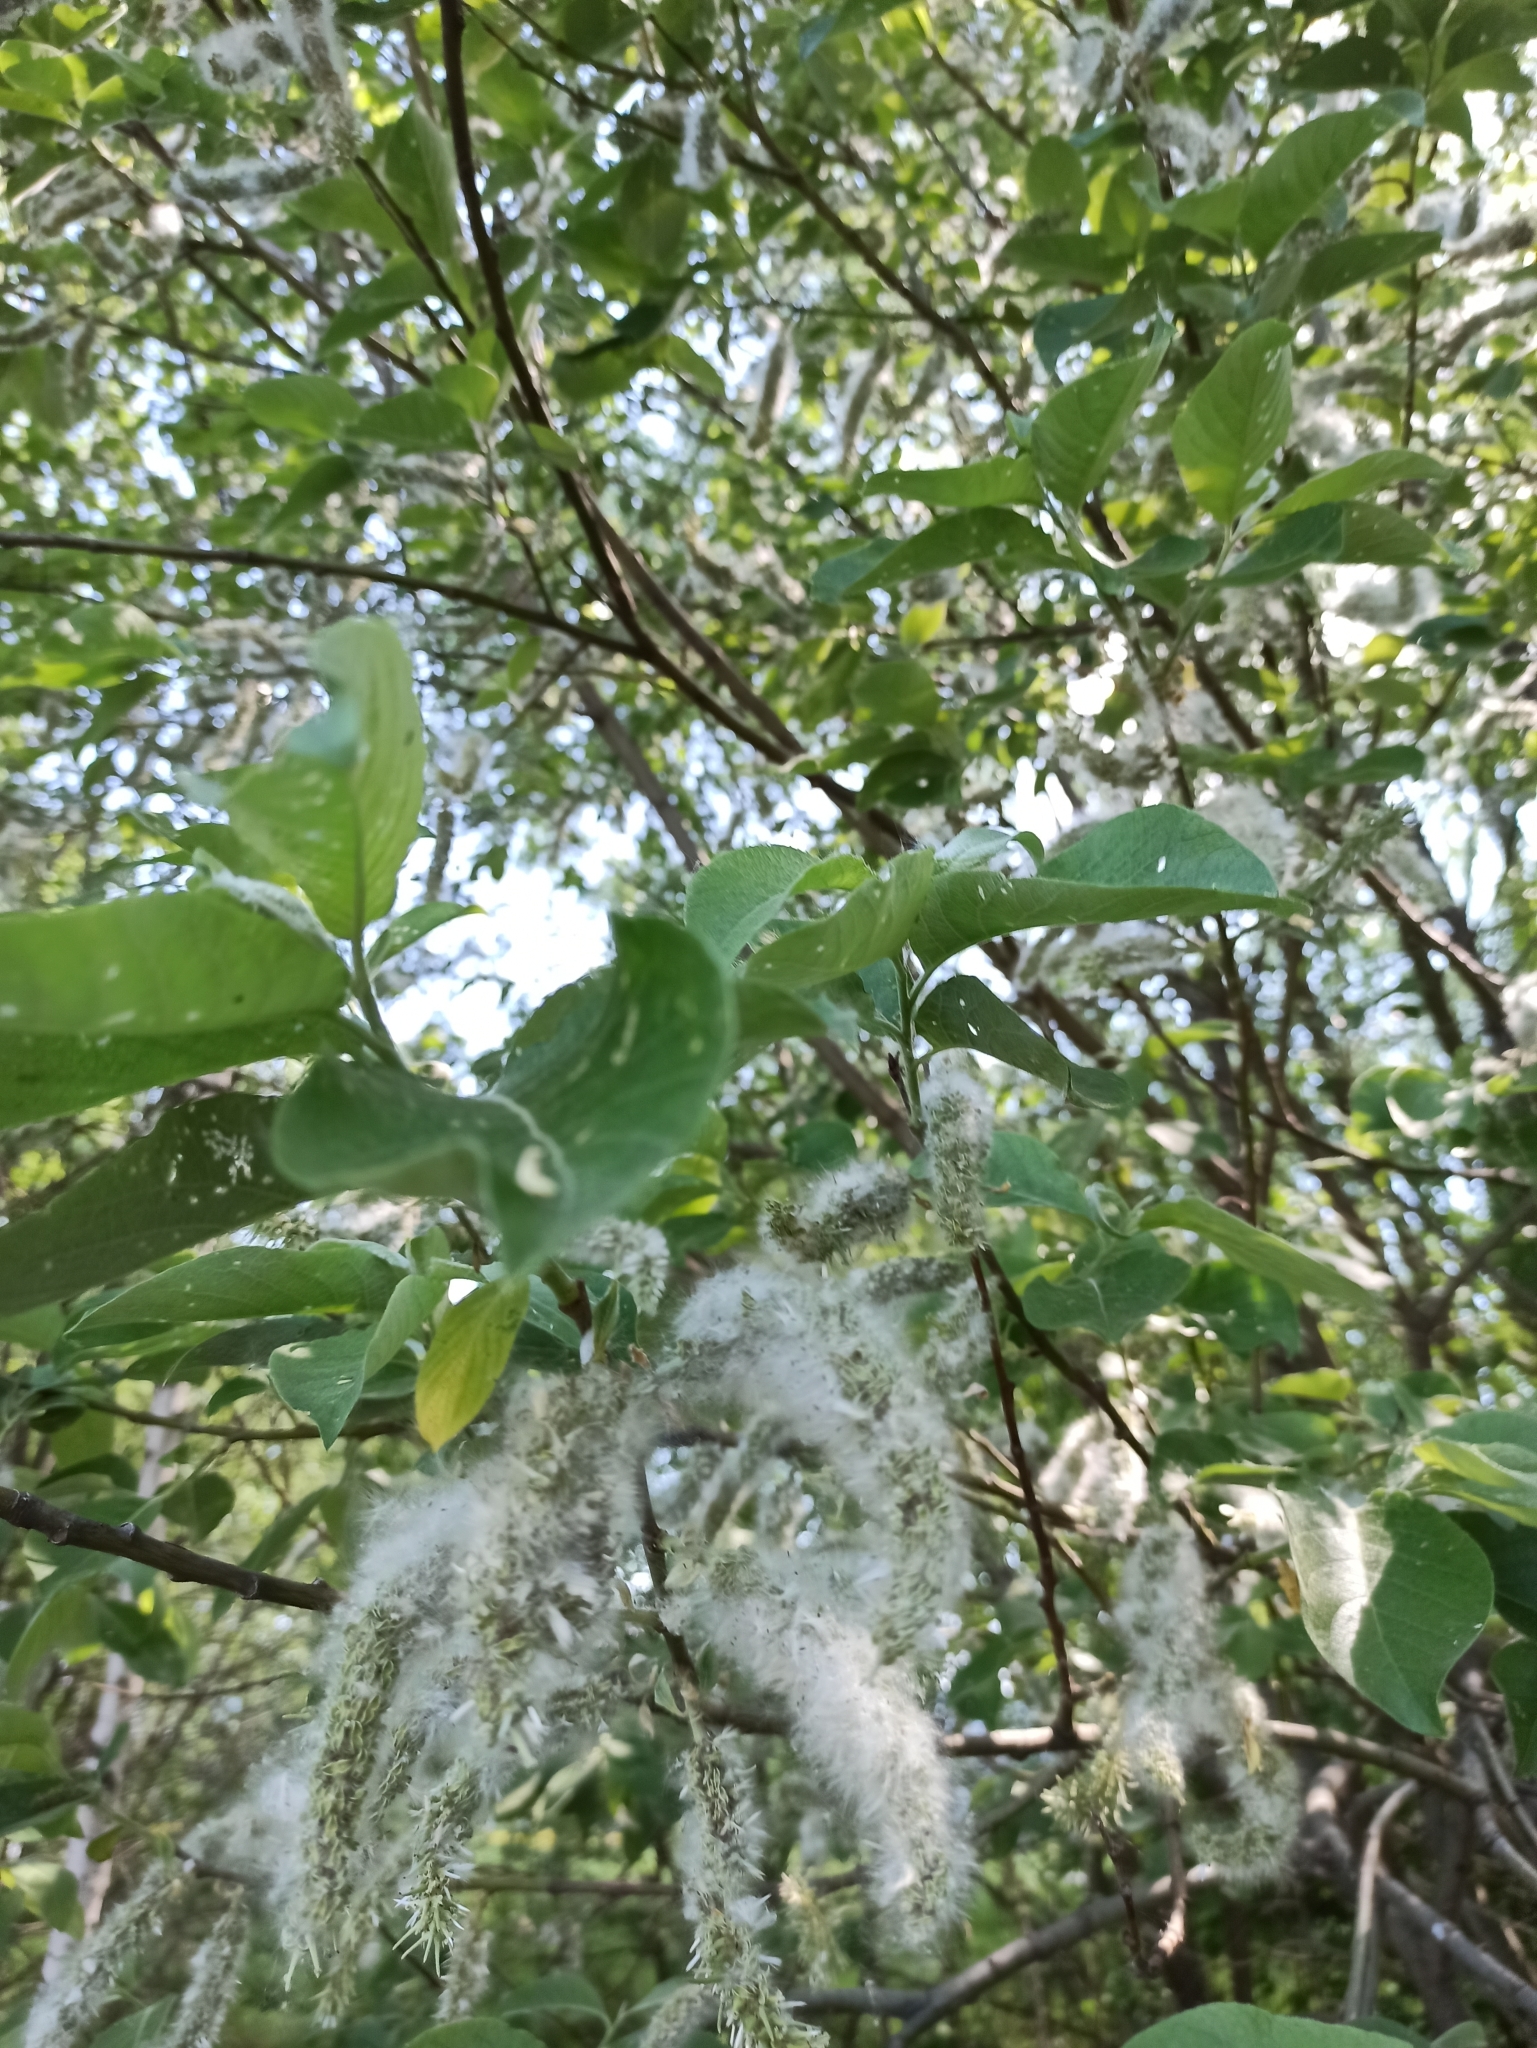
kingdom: Plantae
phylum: Tracheophyta
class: Magnoliopsida
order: Malpighiales
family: Salicaceae
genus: Salix
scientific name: Salix caprea
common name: Goat willow
